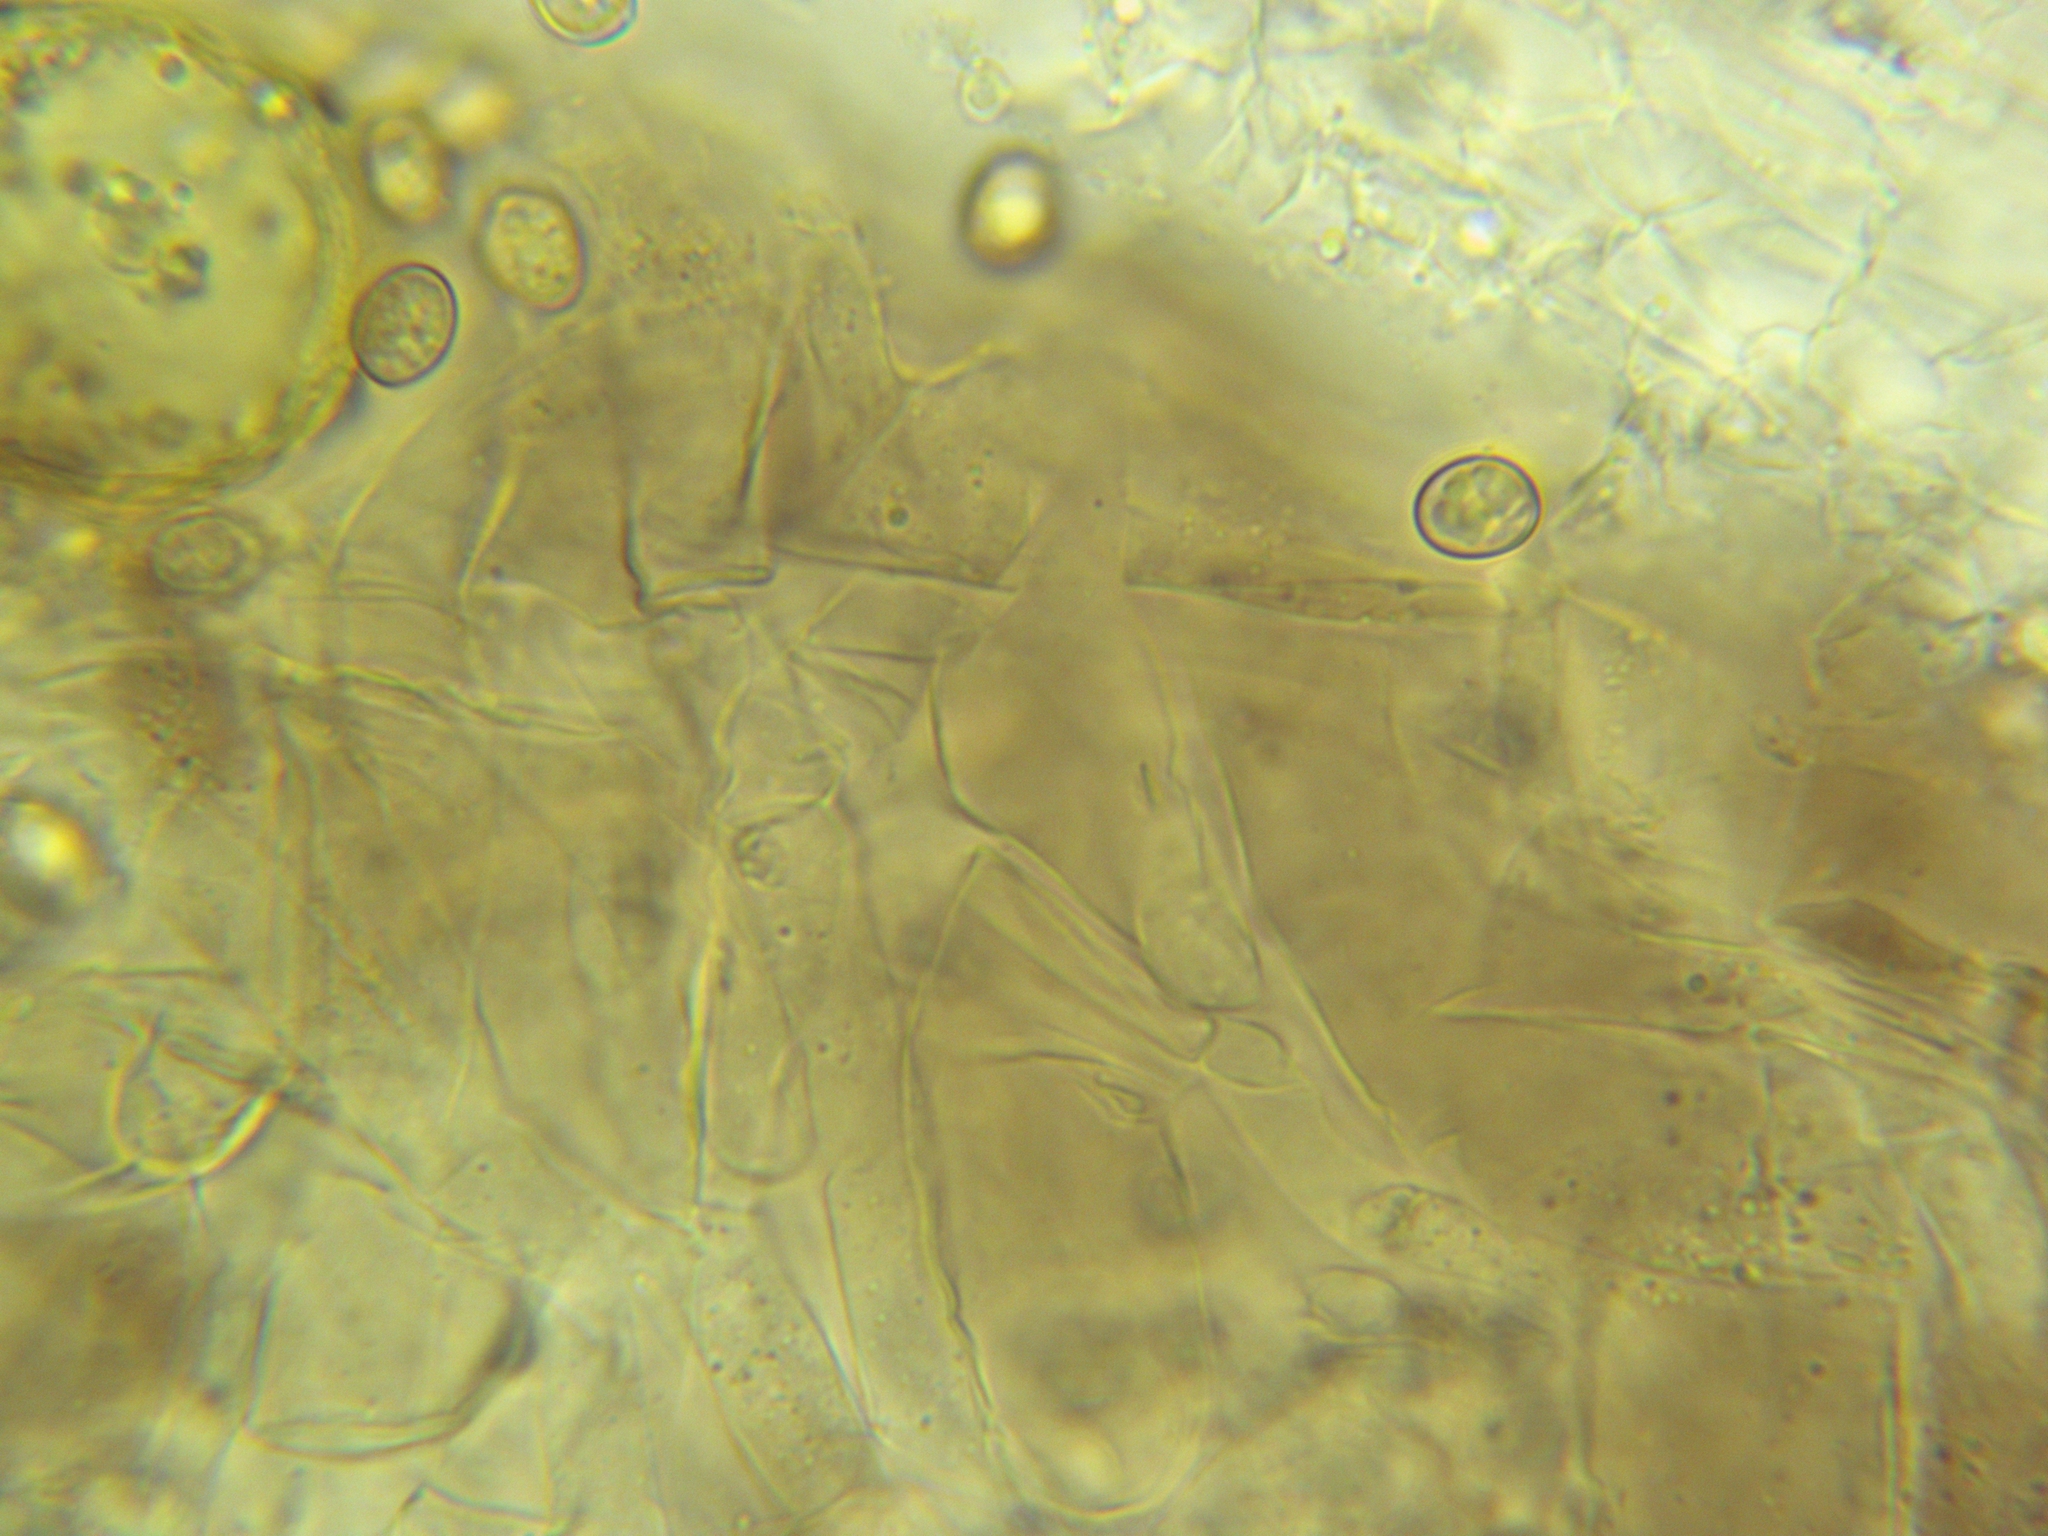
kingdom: Fungi
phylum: Basidiomycota
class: Agaricomycetes
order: Agaricales
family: Pluteaceae
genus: Pluteus
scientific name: Pluteus americanus
